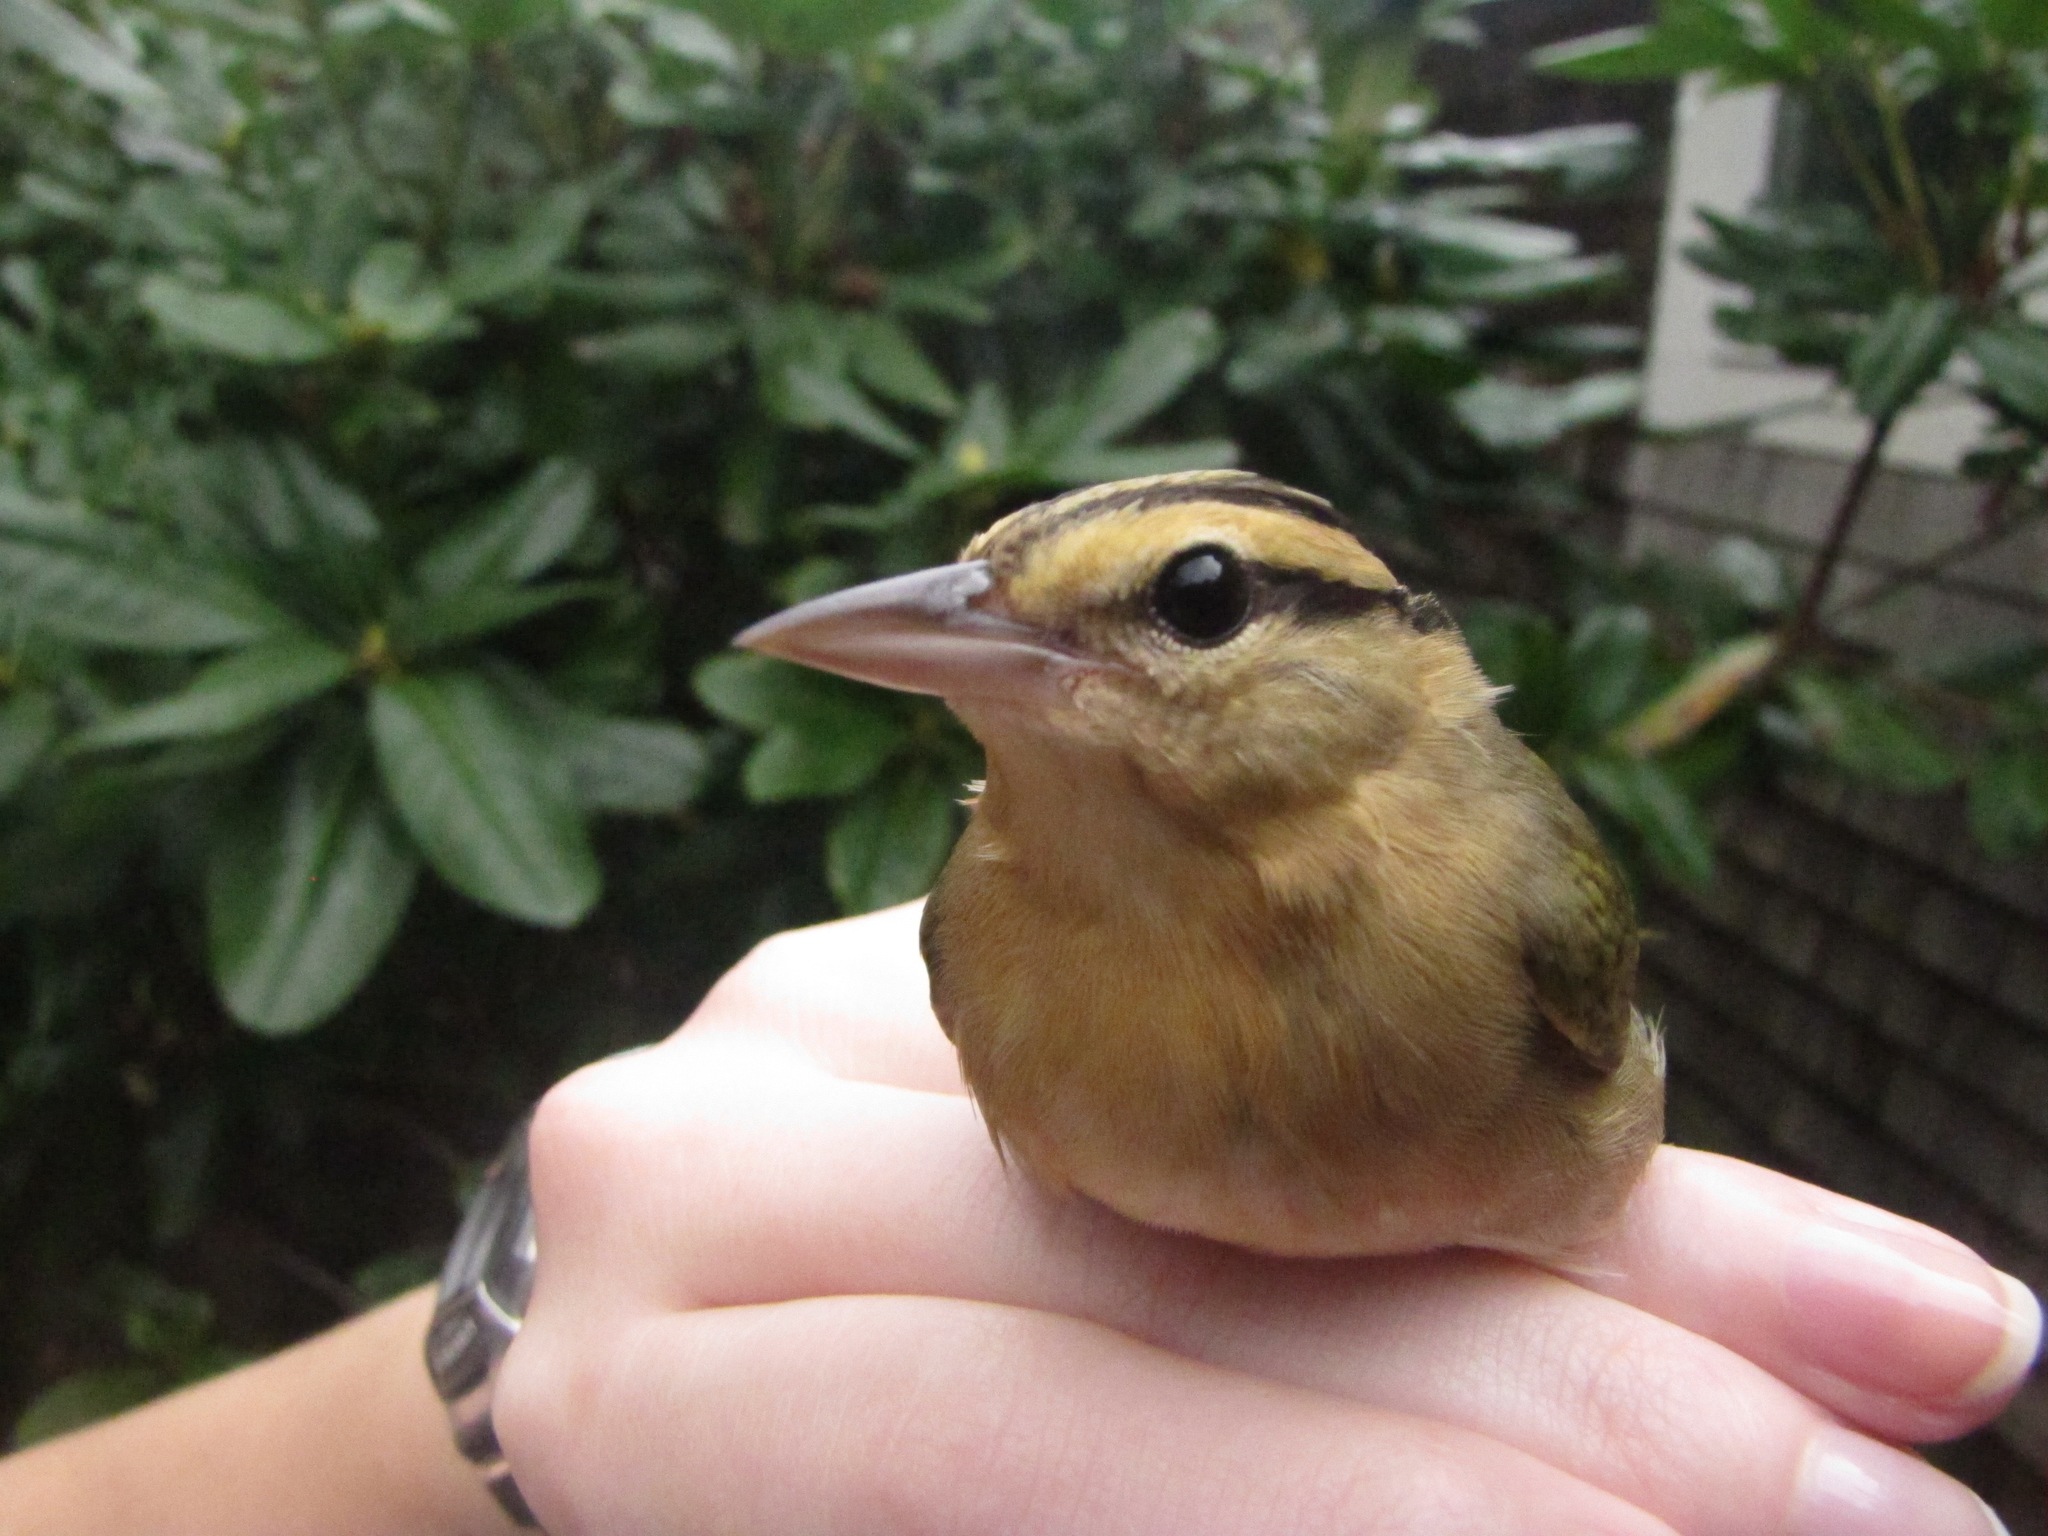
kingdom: Animalia
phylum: Chordata
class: Aves
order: Passeriformes
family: Parulidae
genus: Helmitheros
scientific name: Helmitheros vermivorum
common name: Worm-eating warbler
